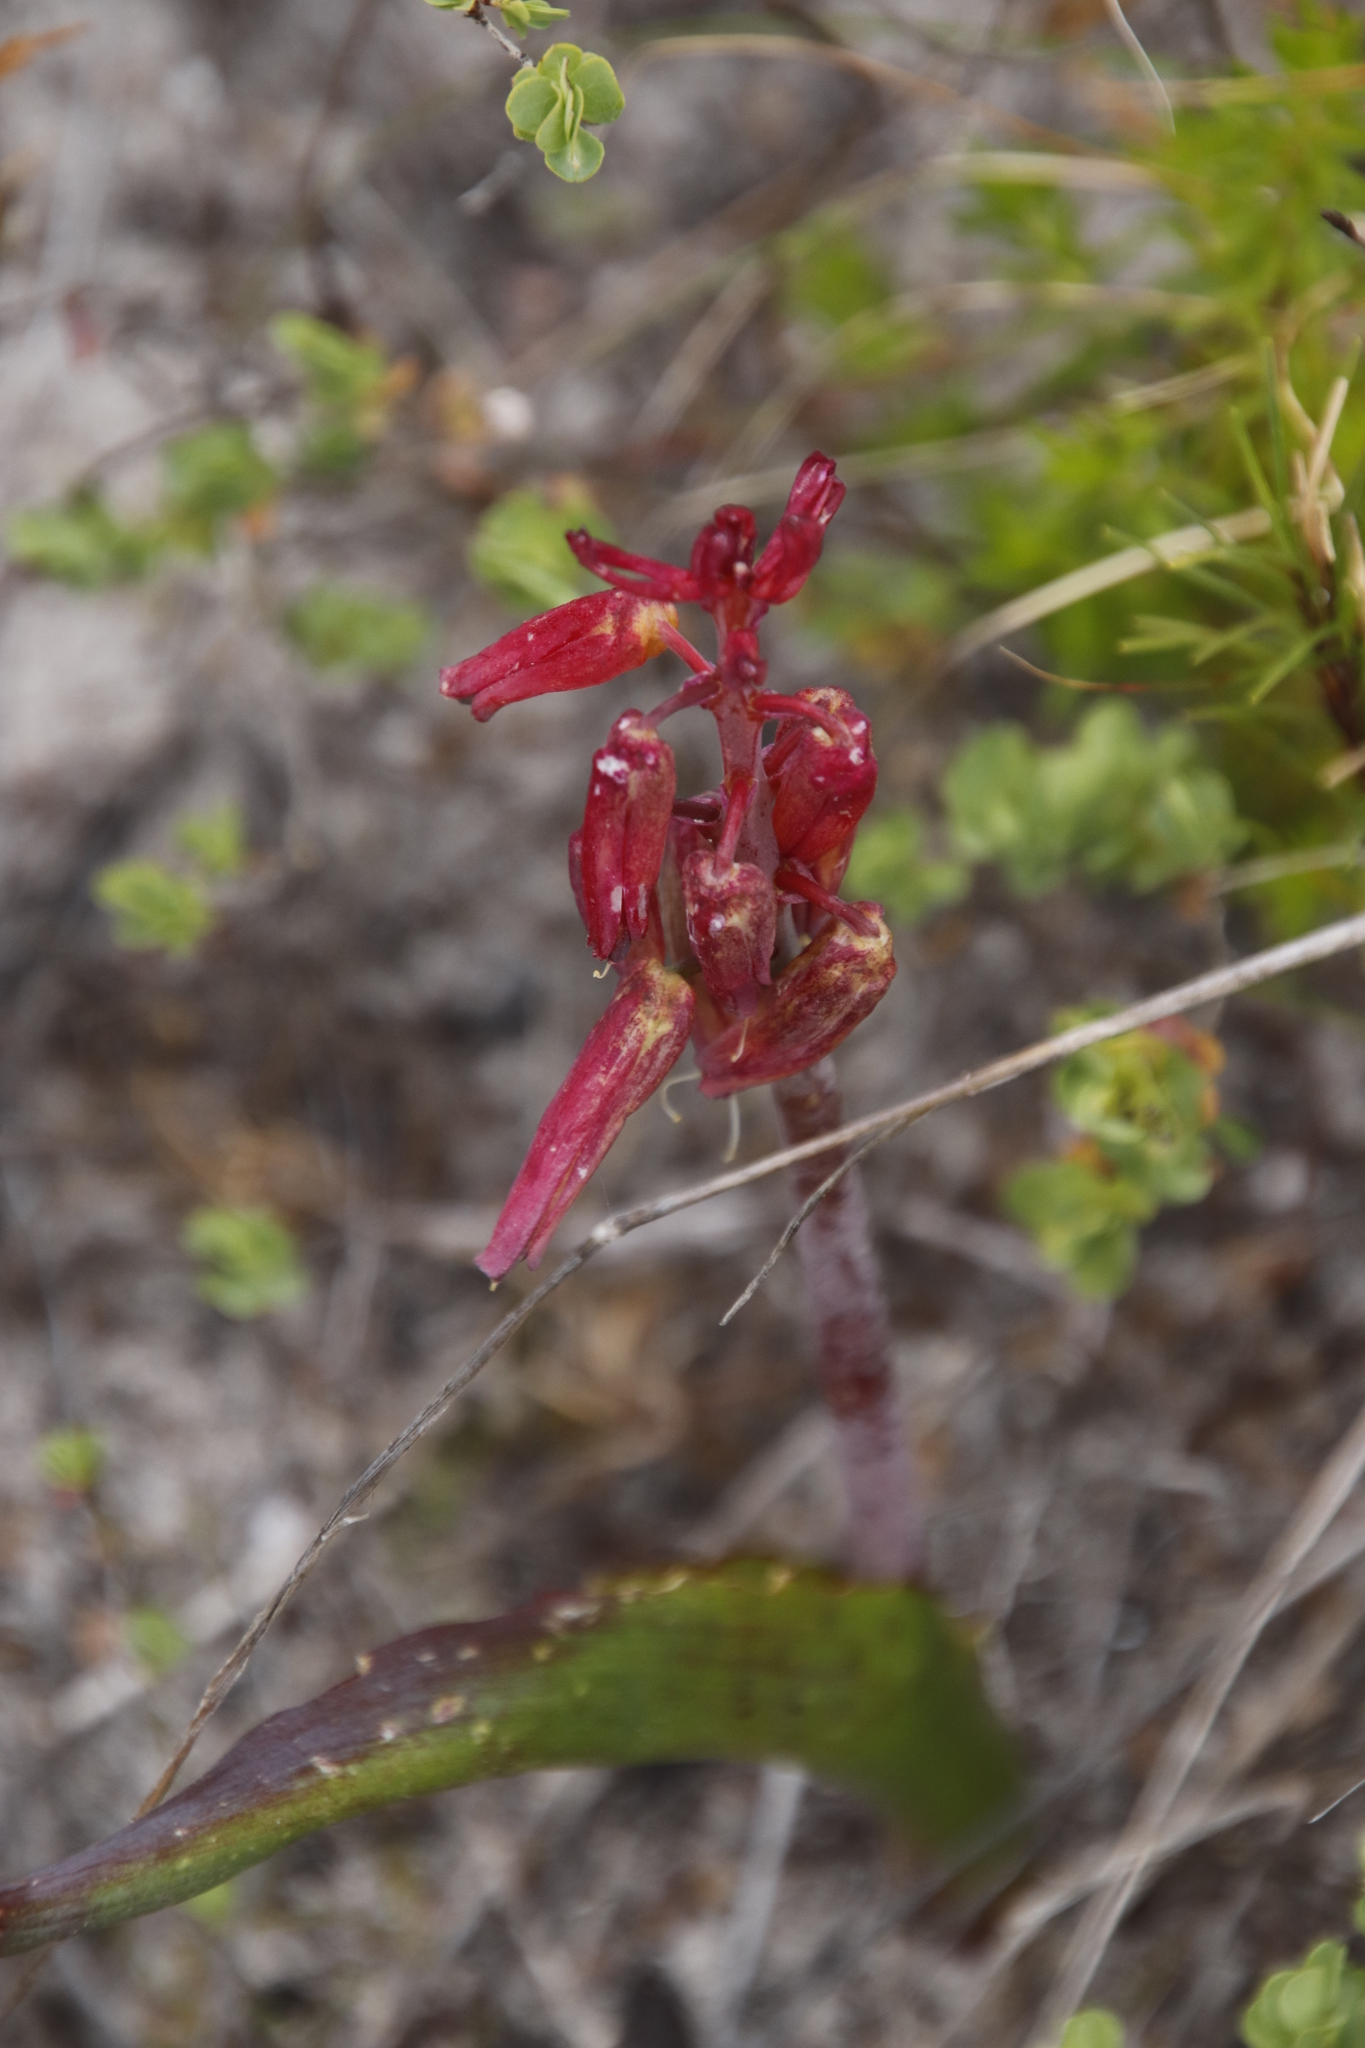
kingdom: Plantae
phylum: Tracheophyta
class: Liliopsida
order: Asparagales
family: Asparagaceae
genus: Lachenalia
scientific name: Lachenalia bulbifera
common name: Red lachenalia
